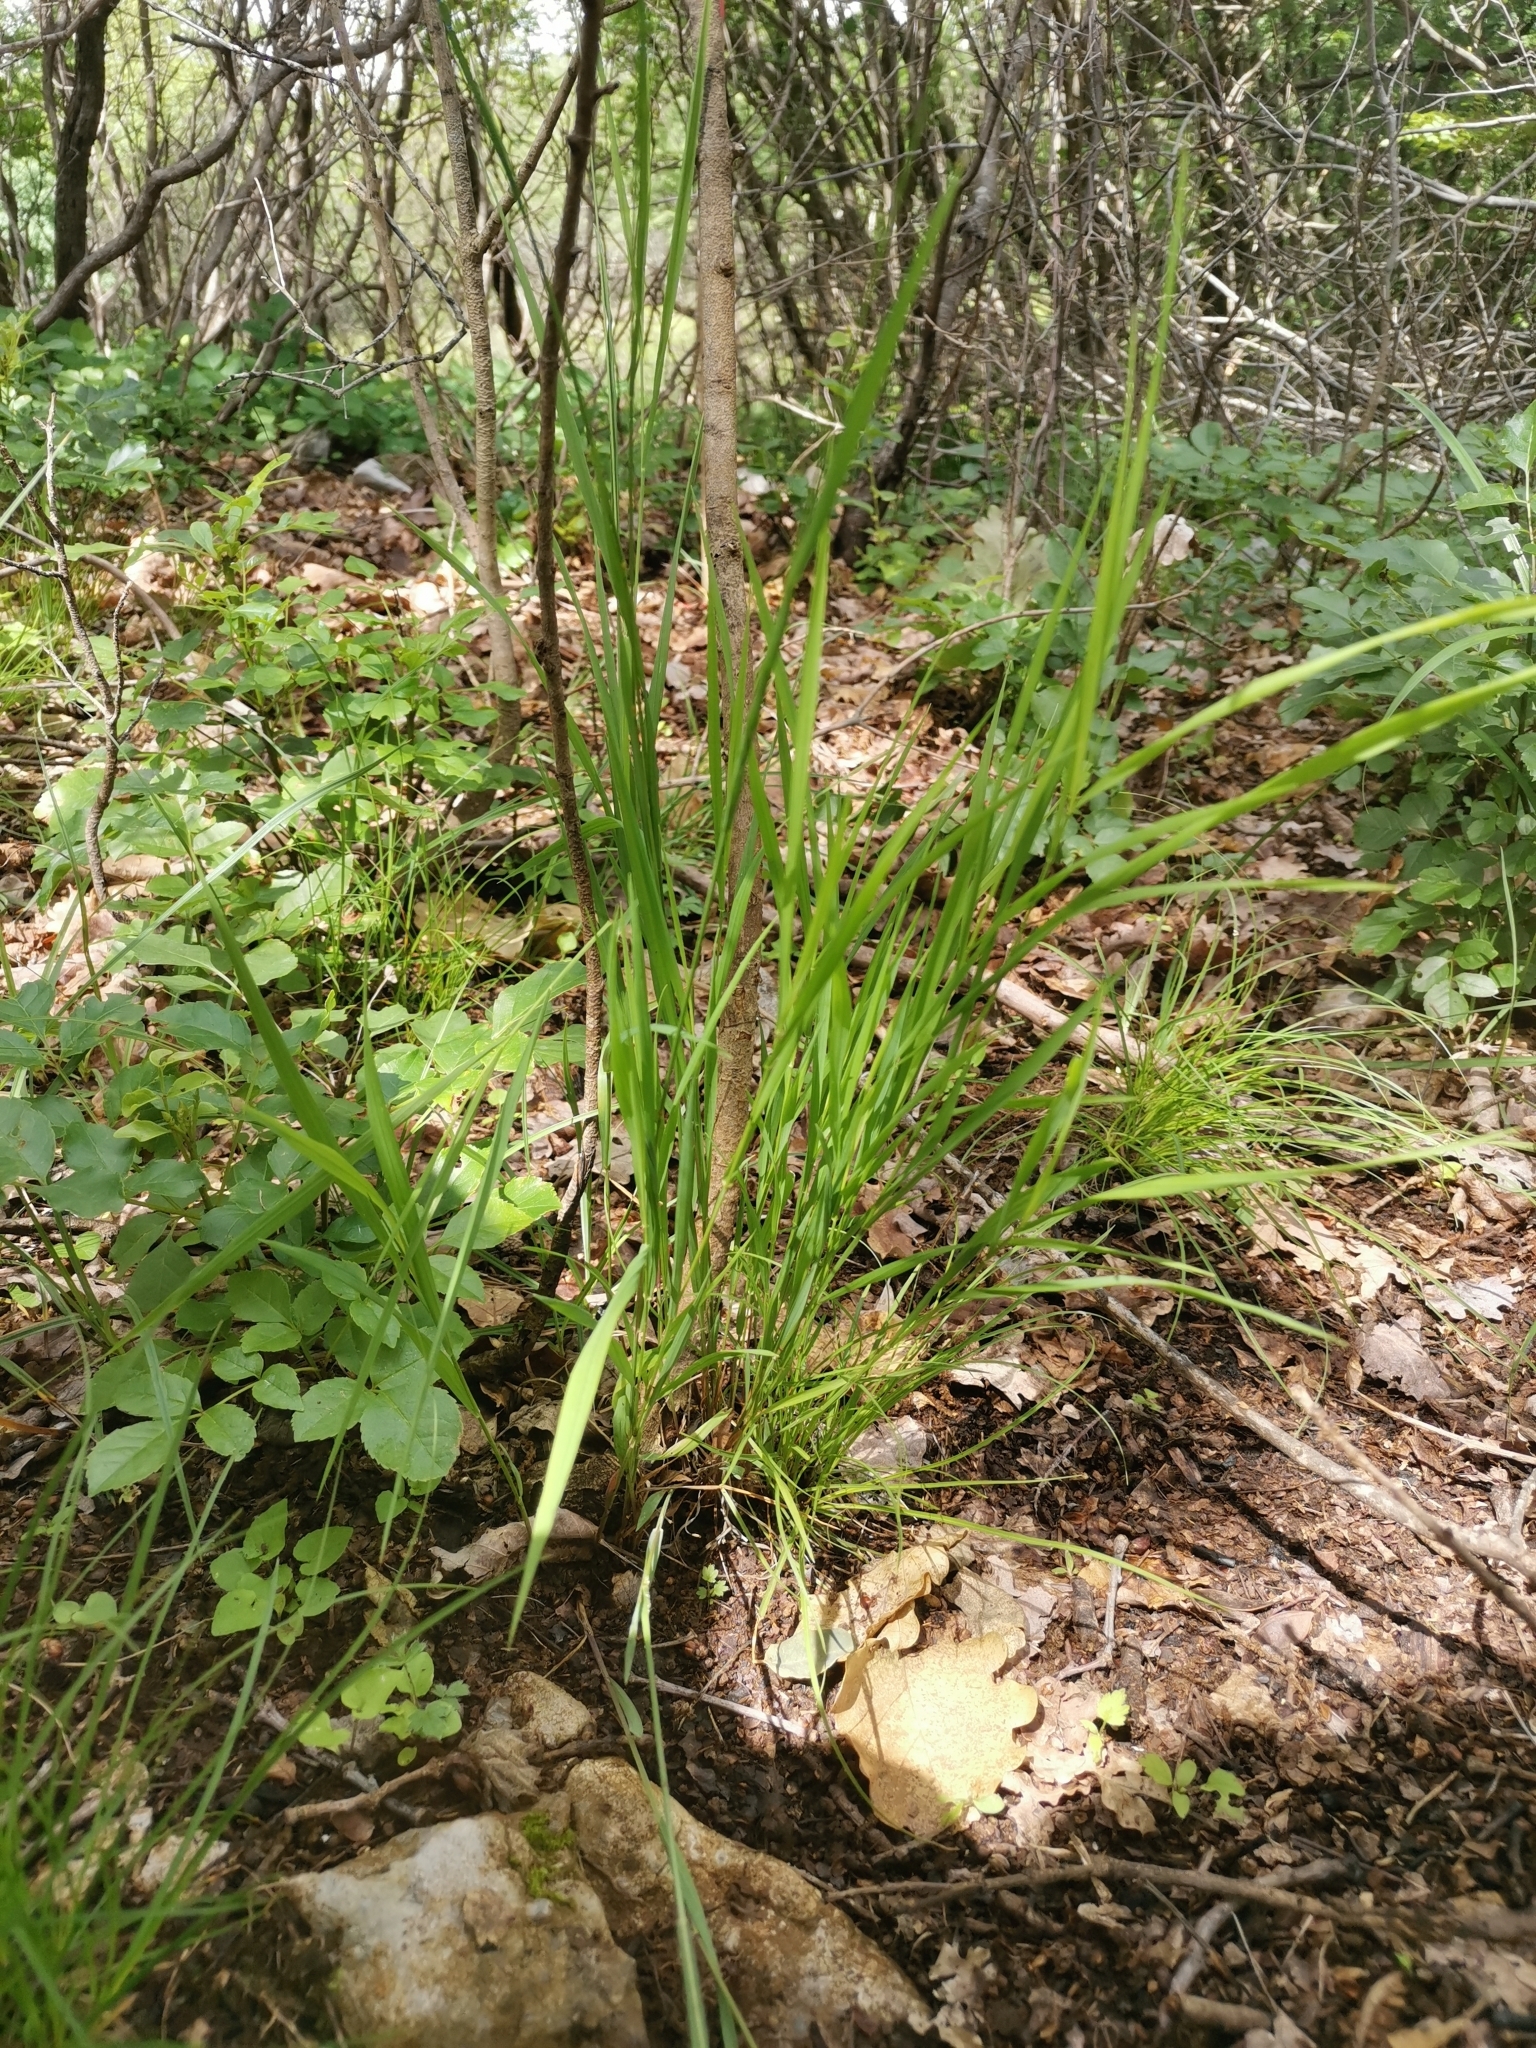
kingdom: Plantae
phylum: Tracheophyta
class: Liliopsida
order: Poales
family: Poaceae
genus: Melica
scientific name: Melica picta
